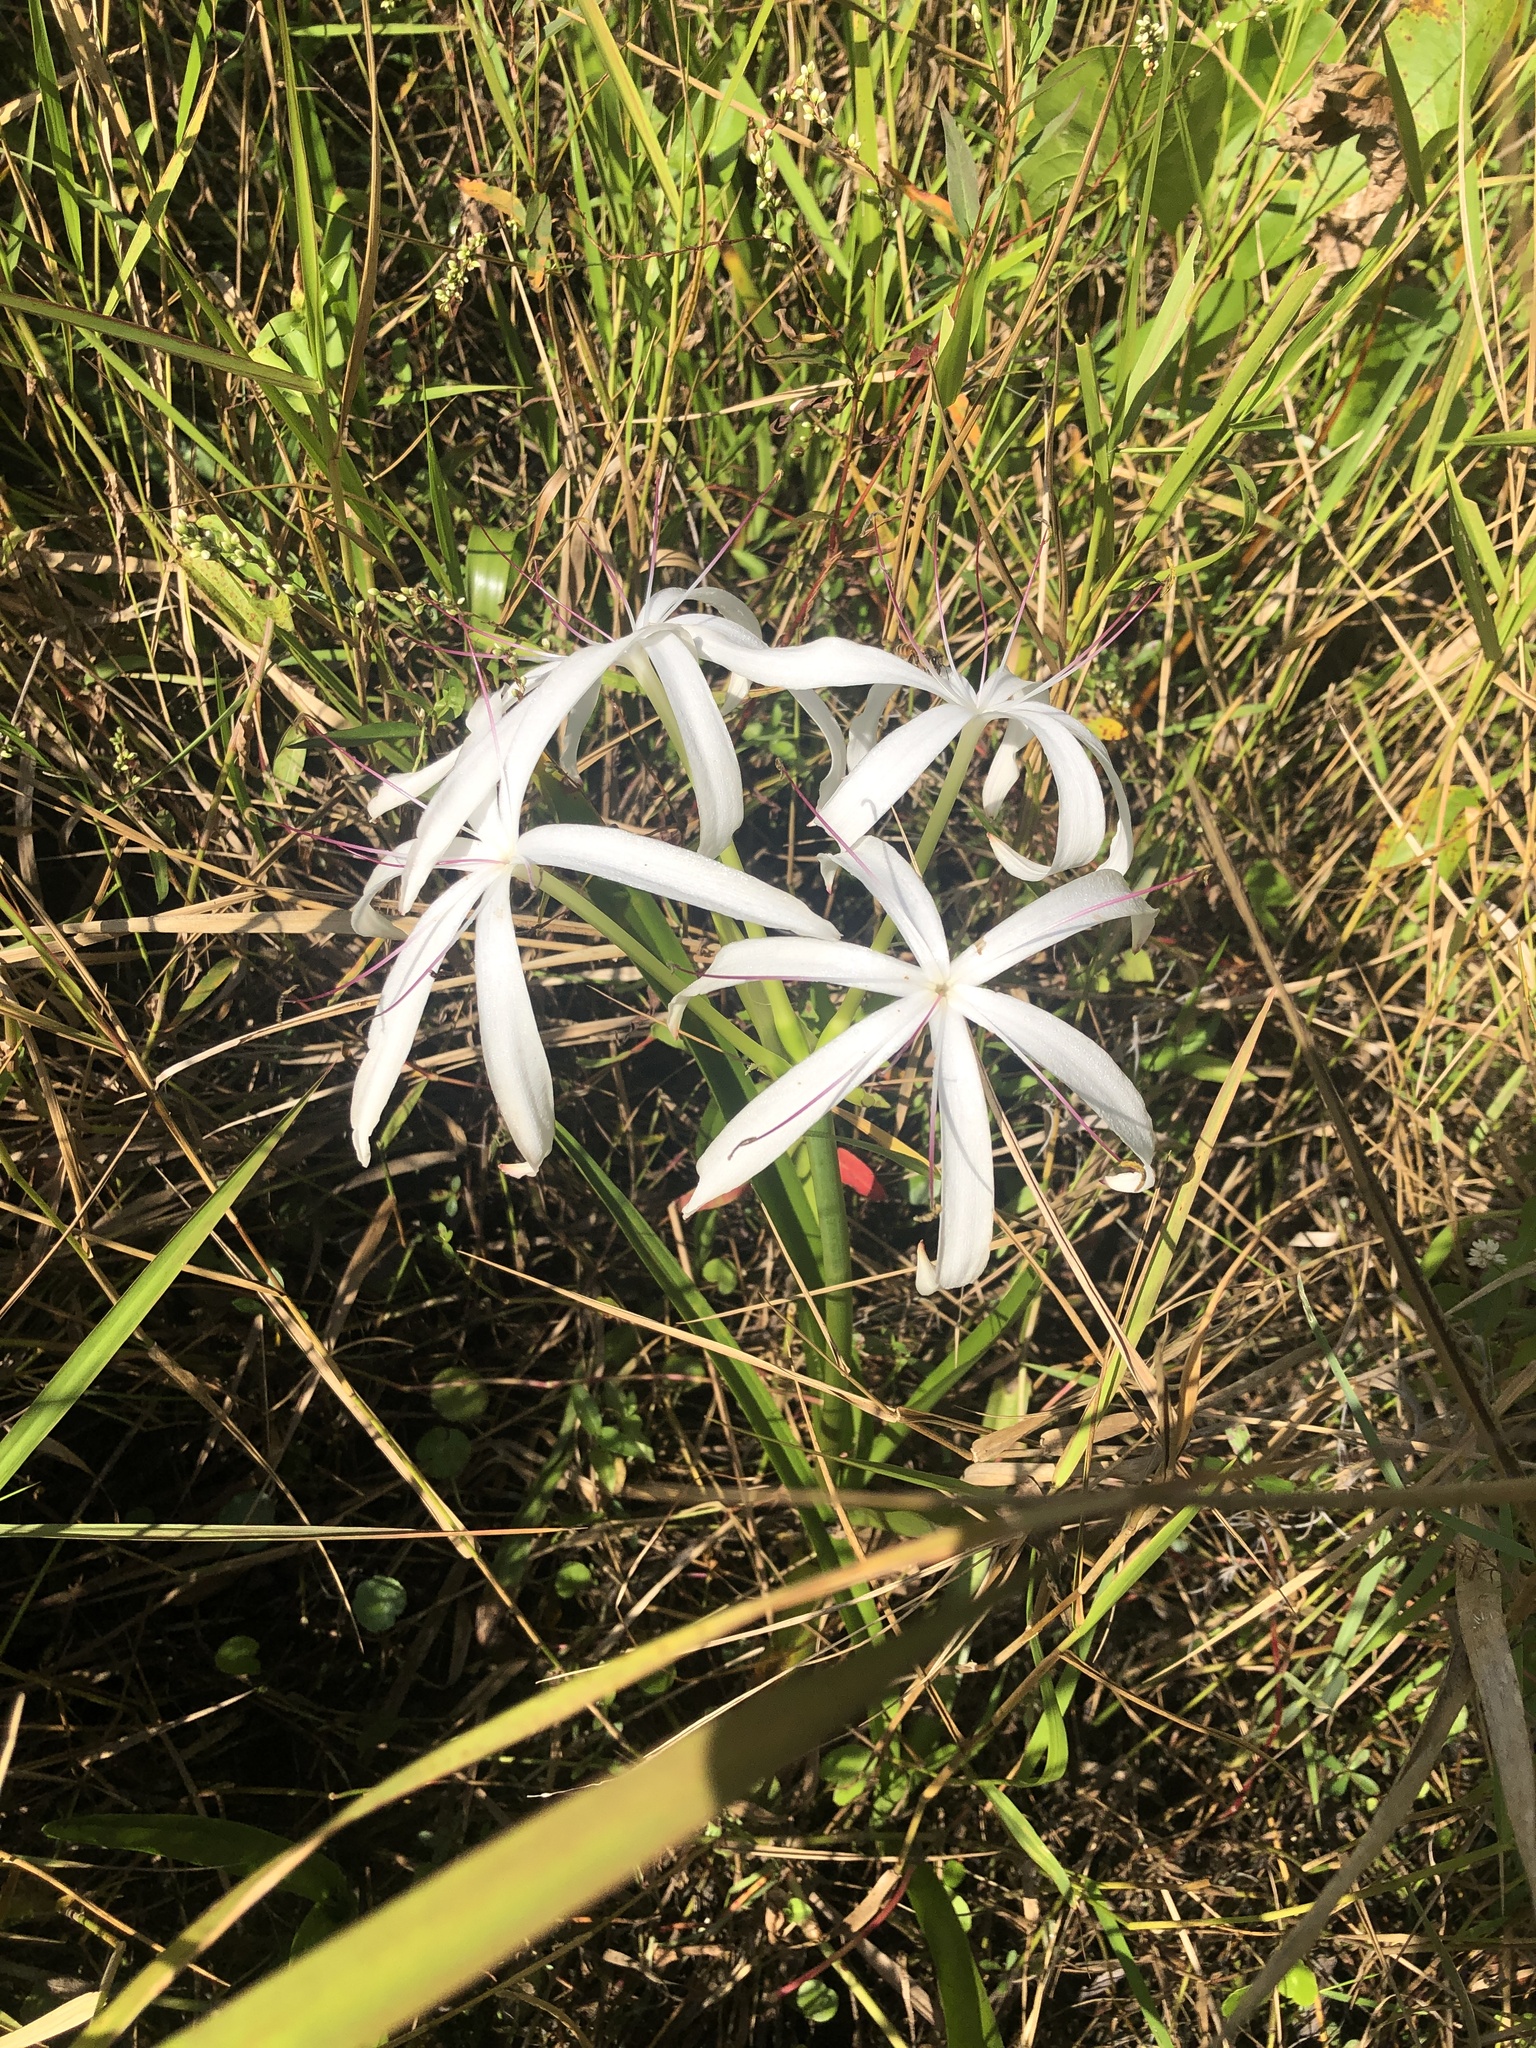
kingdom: Plantae
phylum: Tracheophyta
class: Liliopsida
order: Asparagales
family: Amaryllidaceae
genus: Crinum
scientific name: Crinum americanum
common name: Florida swamp-lily
